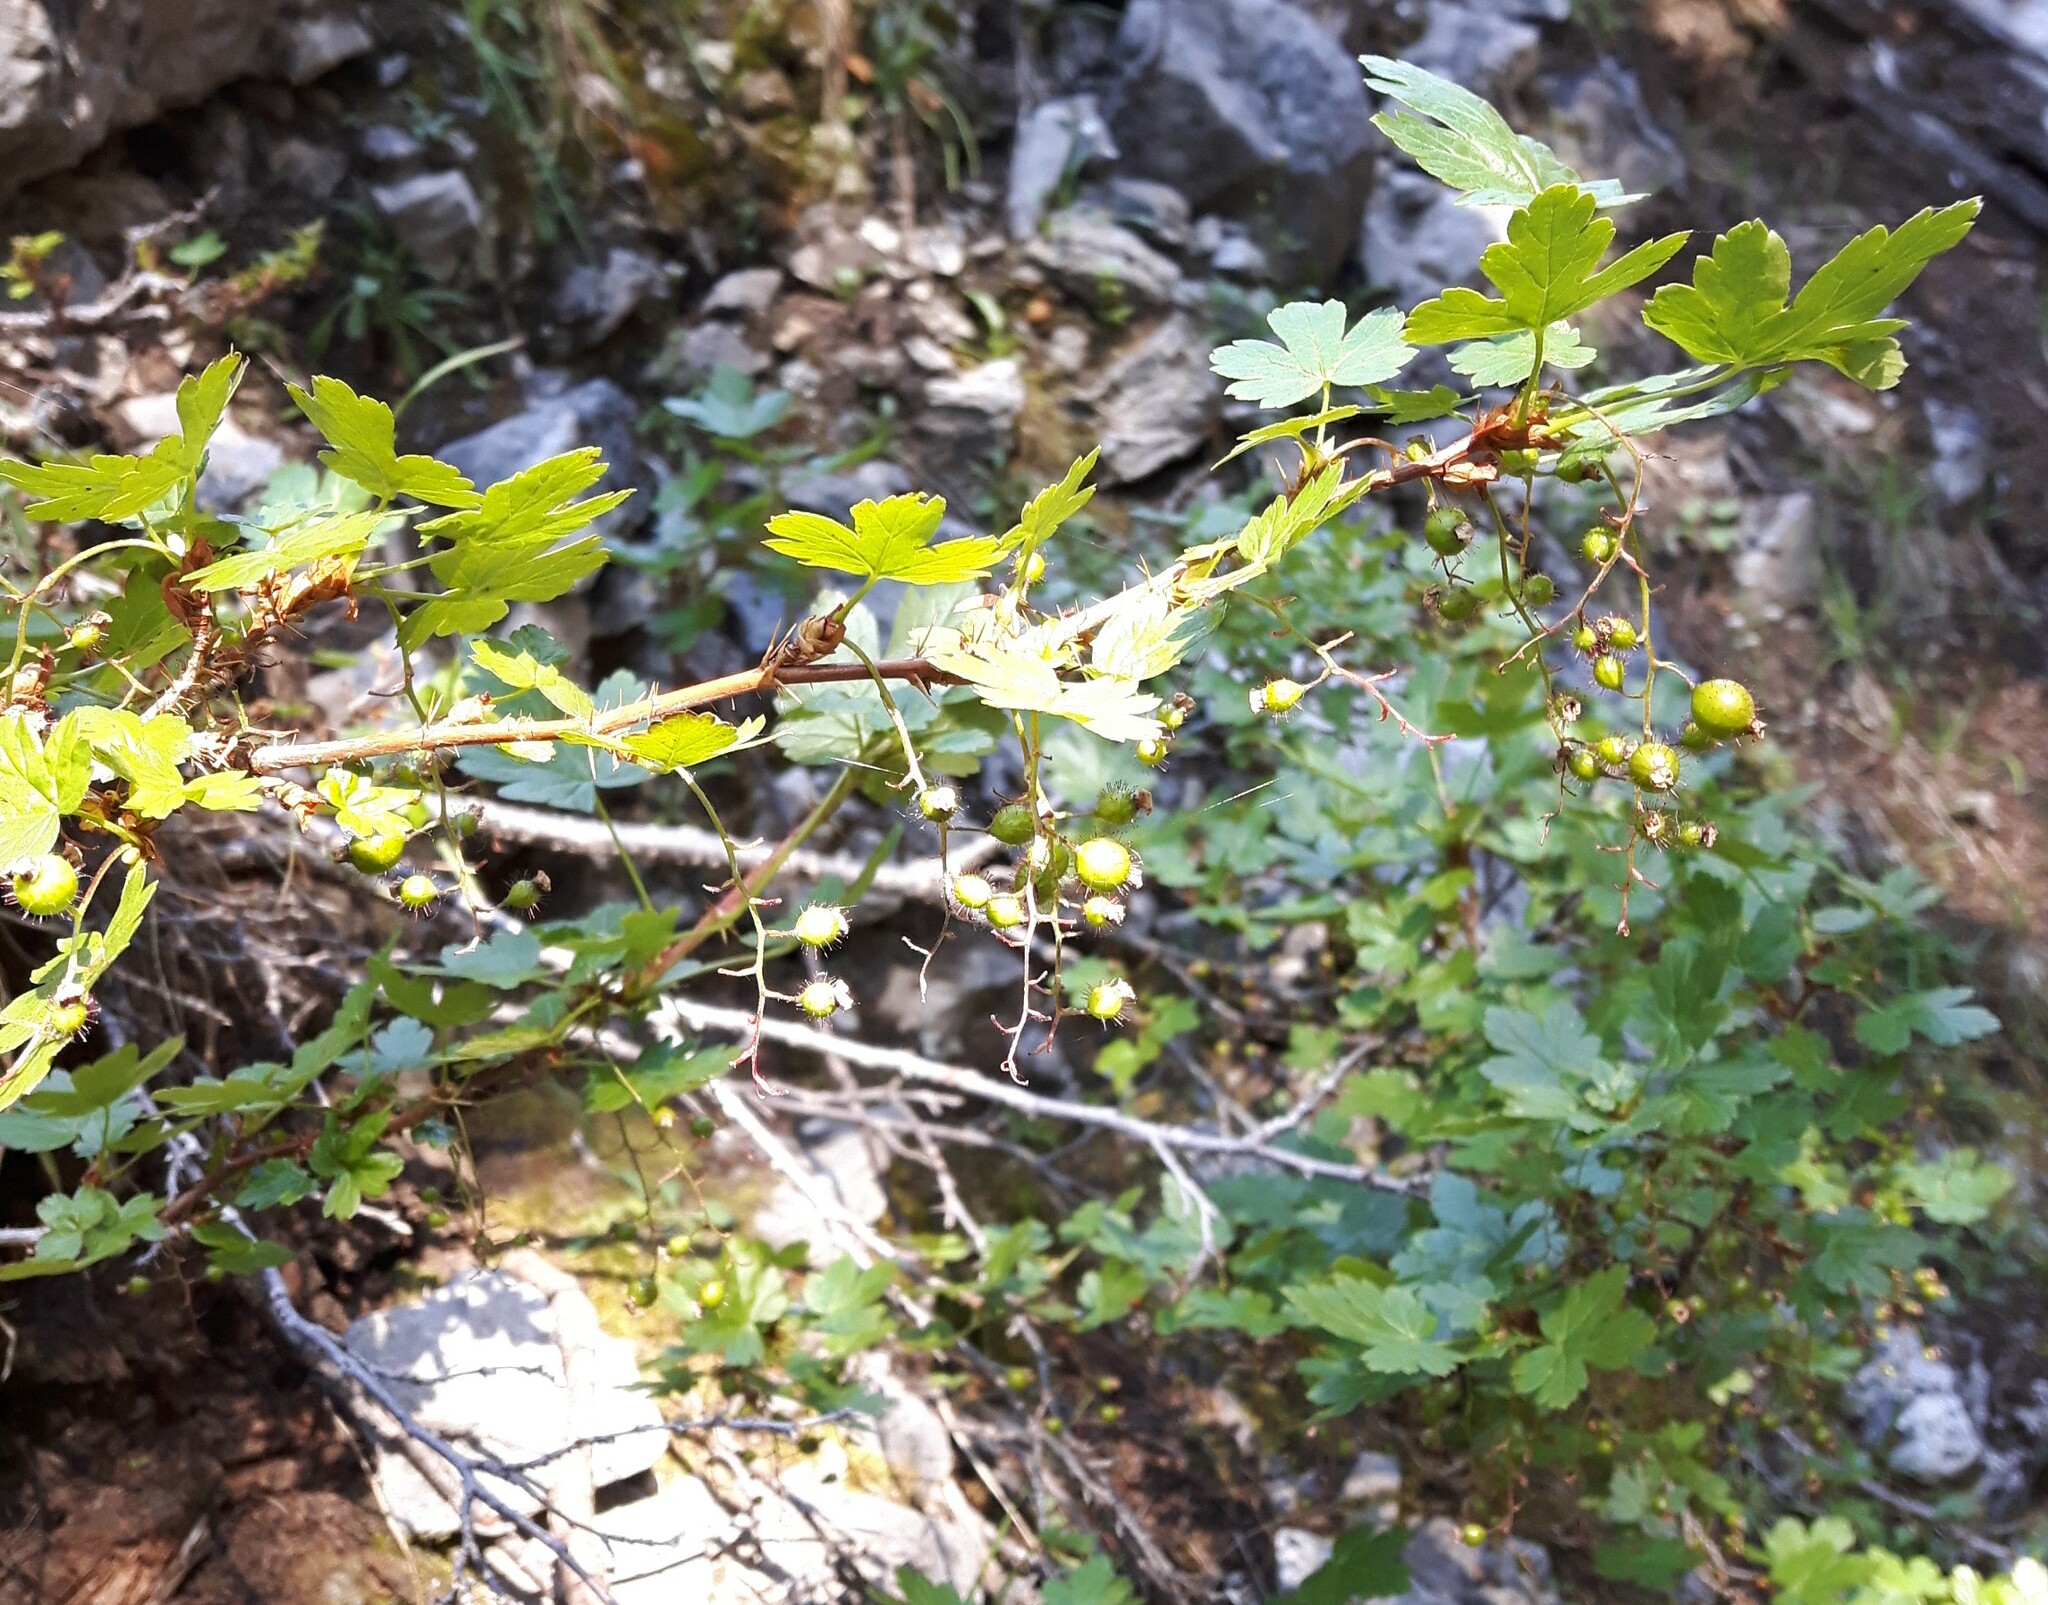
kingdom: Plantae
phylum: Tracheophyta
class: Magnoliopsida
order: Saxifragales
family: Grossulariaceae
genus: Ribes
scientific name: Ribes lacustre
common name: Black gooseberry
